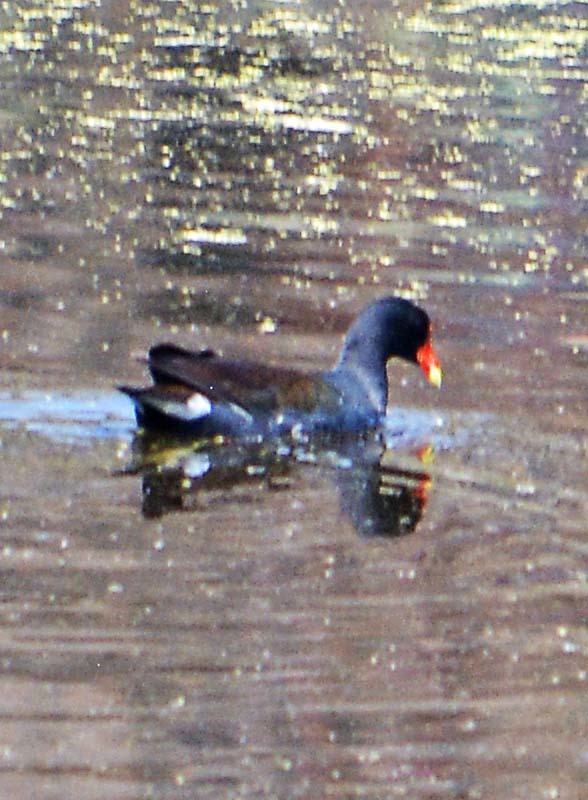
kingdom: Animalia
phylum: Chordata
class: Aves
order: Gruiformes
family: Rallidae
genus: Gallinula
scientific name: Gallinula chloropus
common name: Common moorhen
